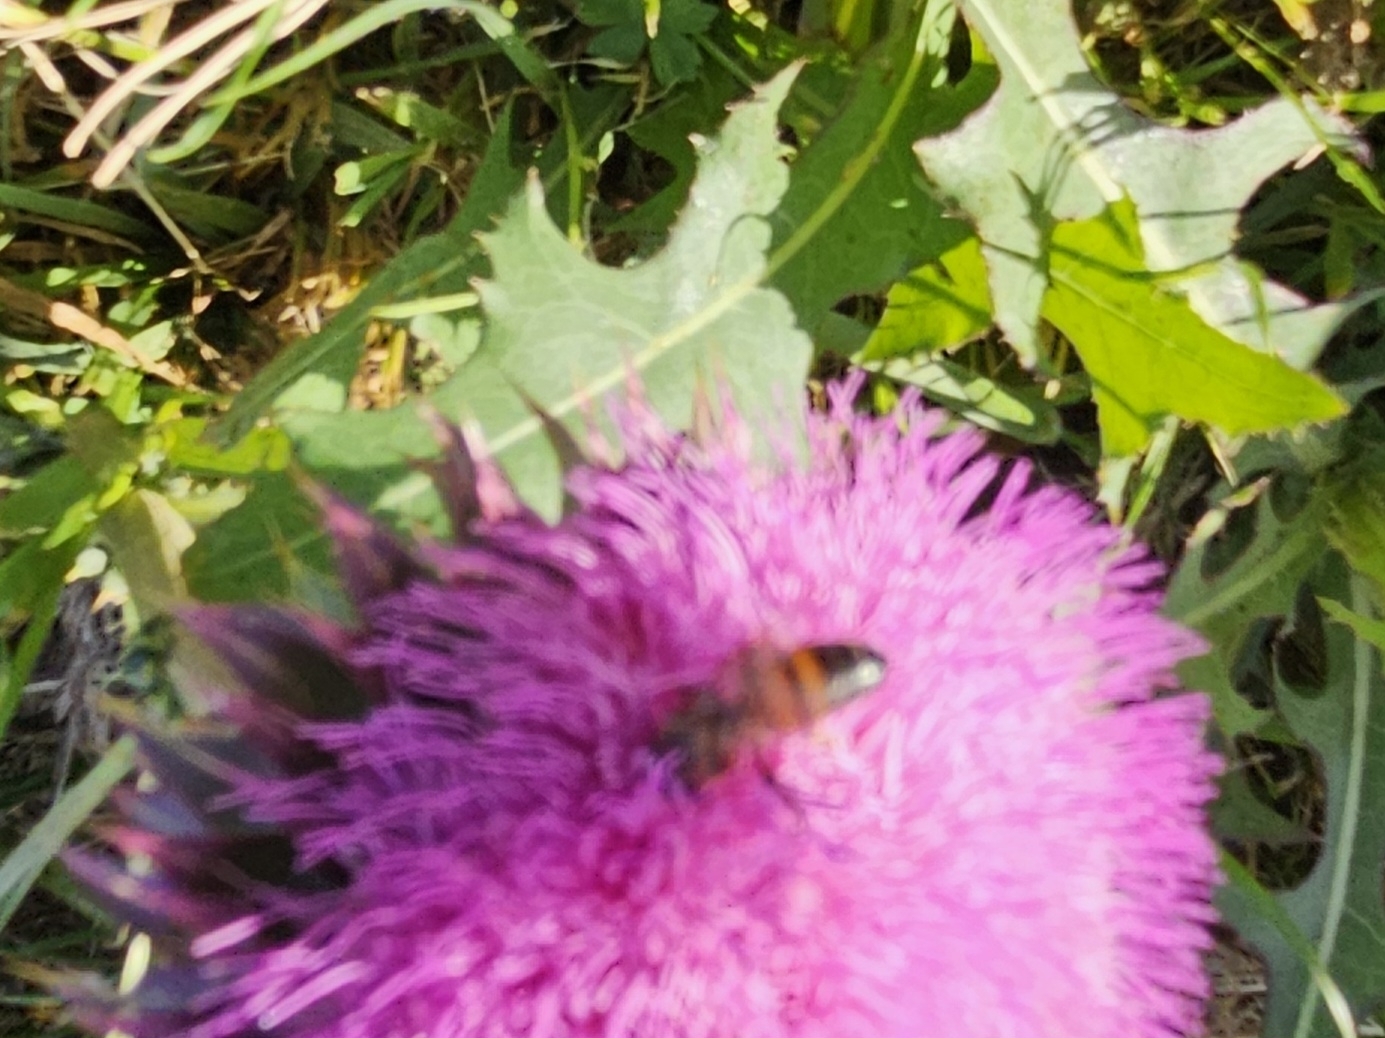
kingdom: Animalia
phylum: Arthropoda
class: Insecta
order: Hymenoptera
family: Apidae
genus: Apis
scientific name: Apis mellifera
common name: Honey bee
